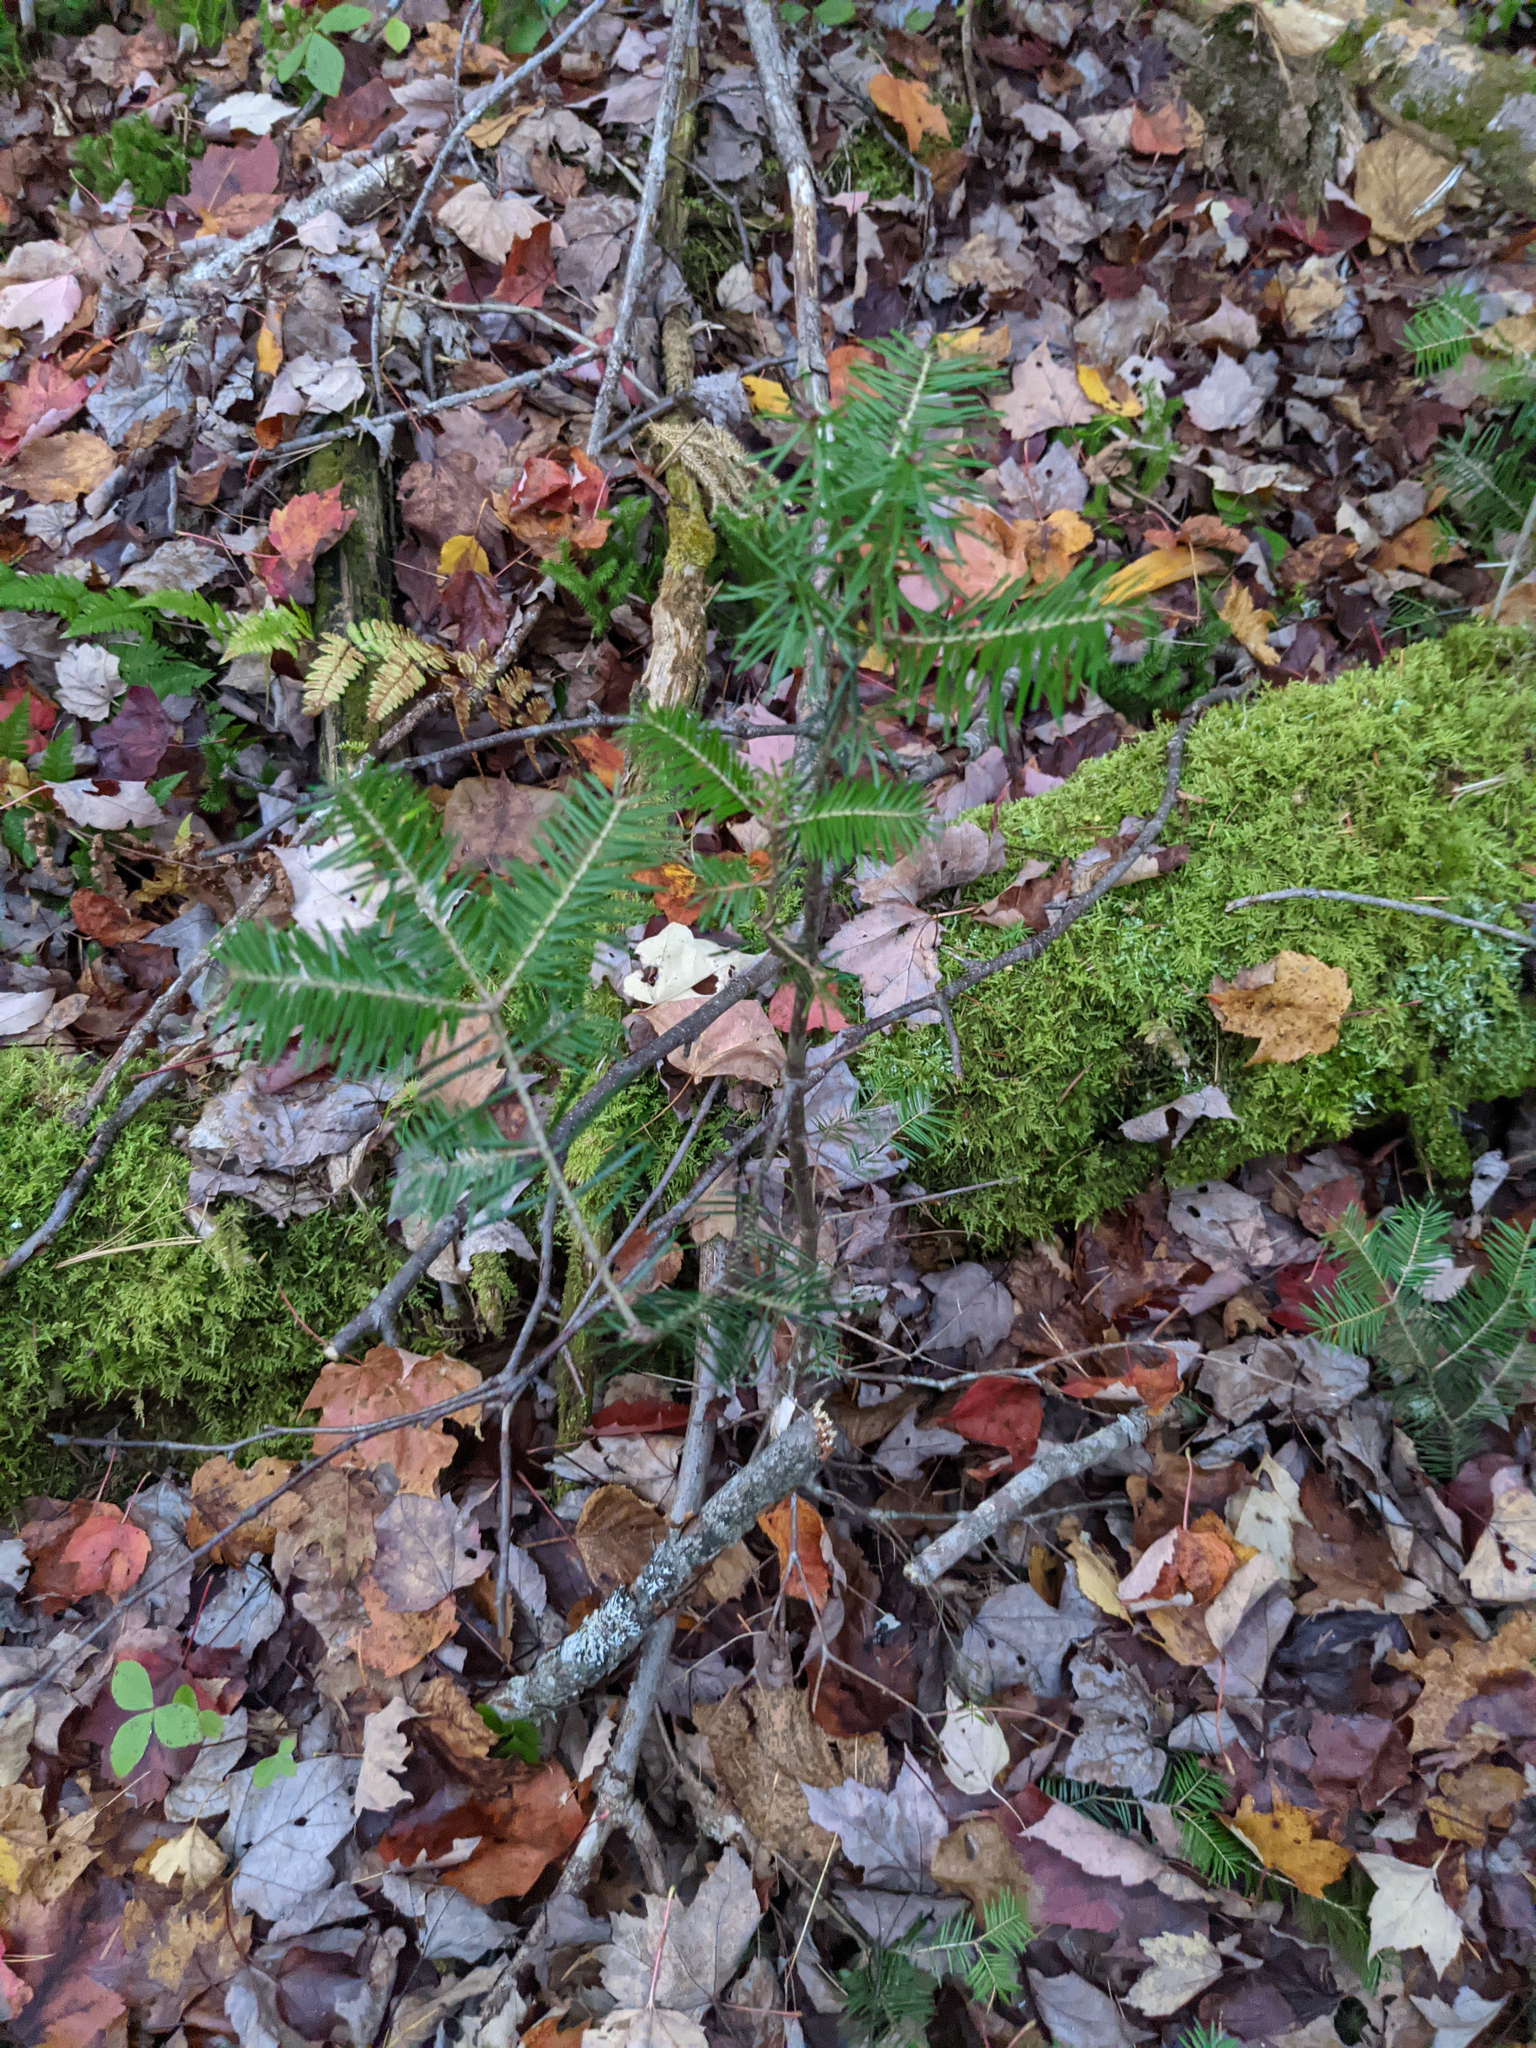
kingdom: Plantae
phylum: Tracheophyta
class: Pinopsida
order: Pinales
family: Pinaceae
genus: Abies
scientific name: Abies balsamea
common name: Balsam fir
